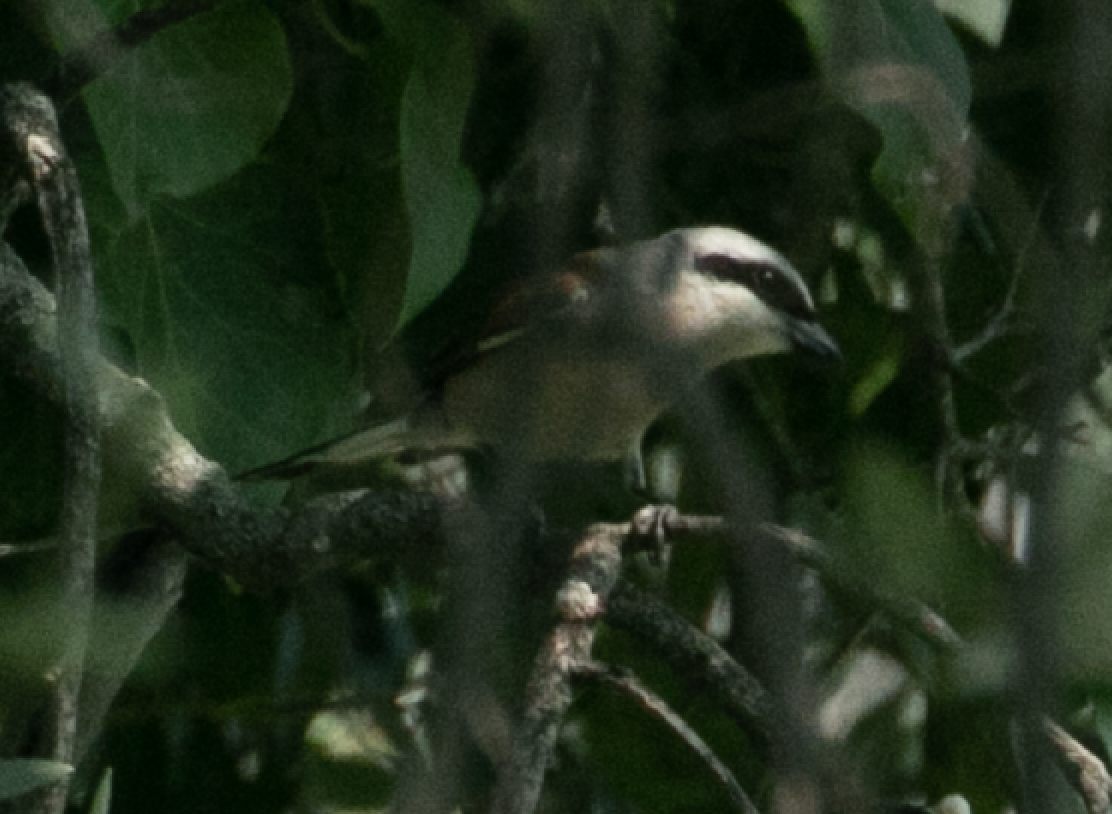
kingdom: Animalia
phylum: Chordata
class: Aves
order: Passeriformes
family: Laniidae
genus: Lanius
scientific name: Lanius collurio
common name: Red-backed shrike
